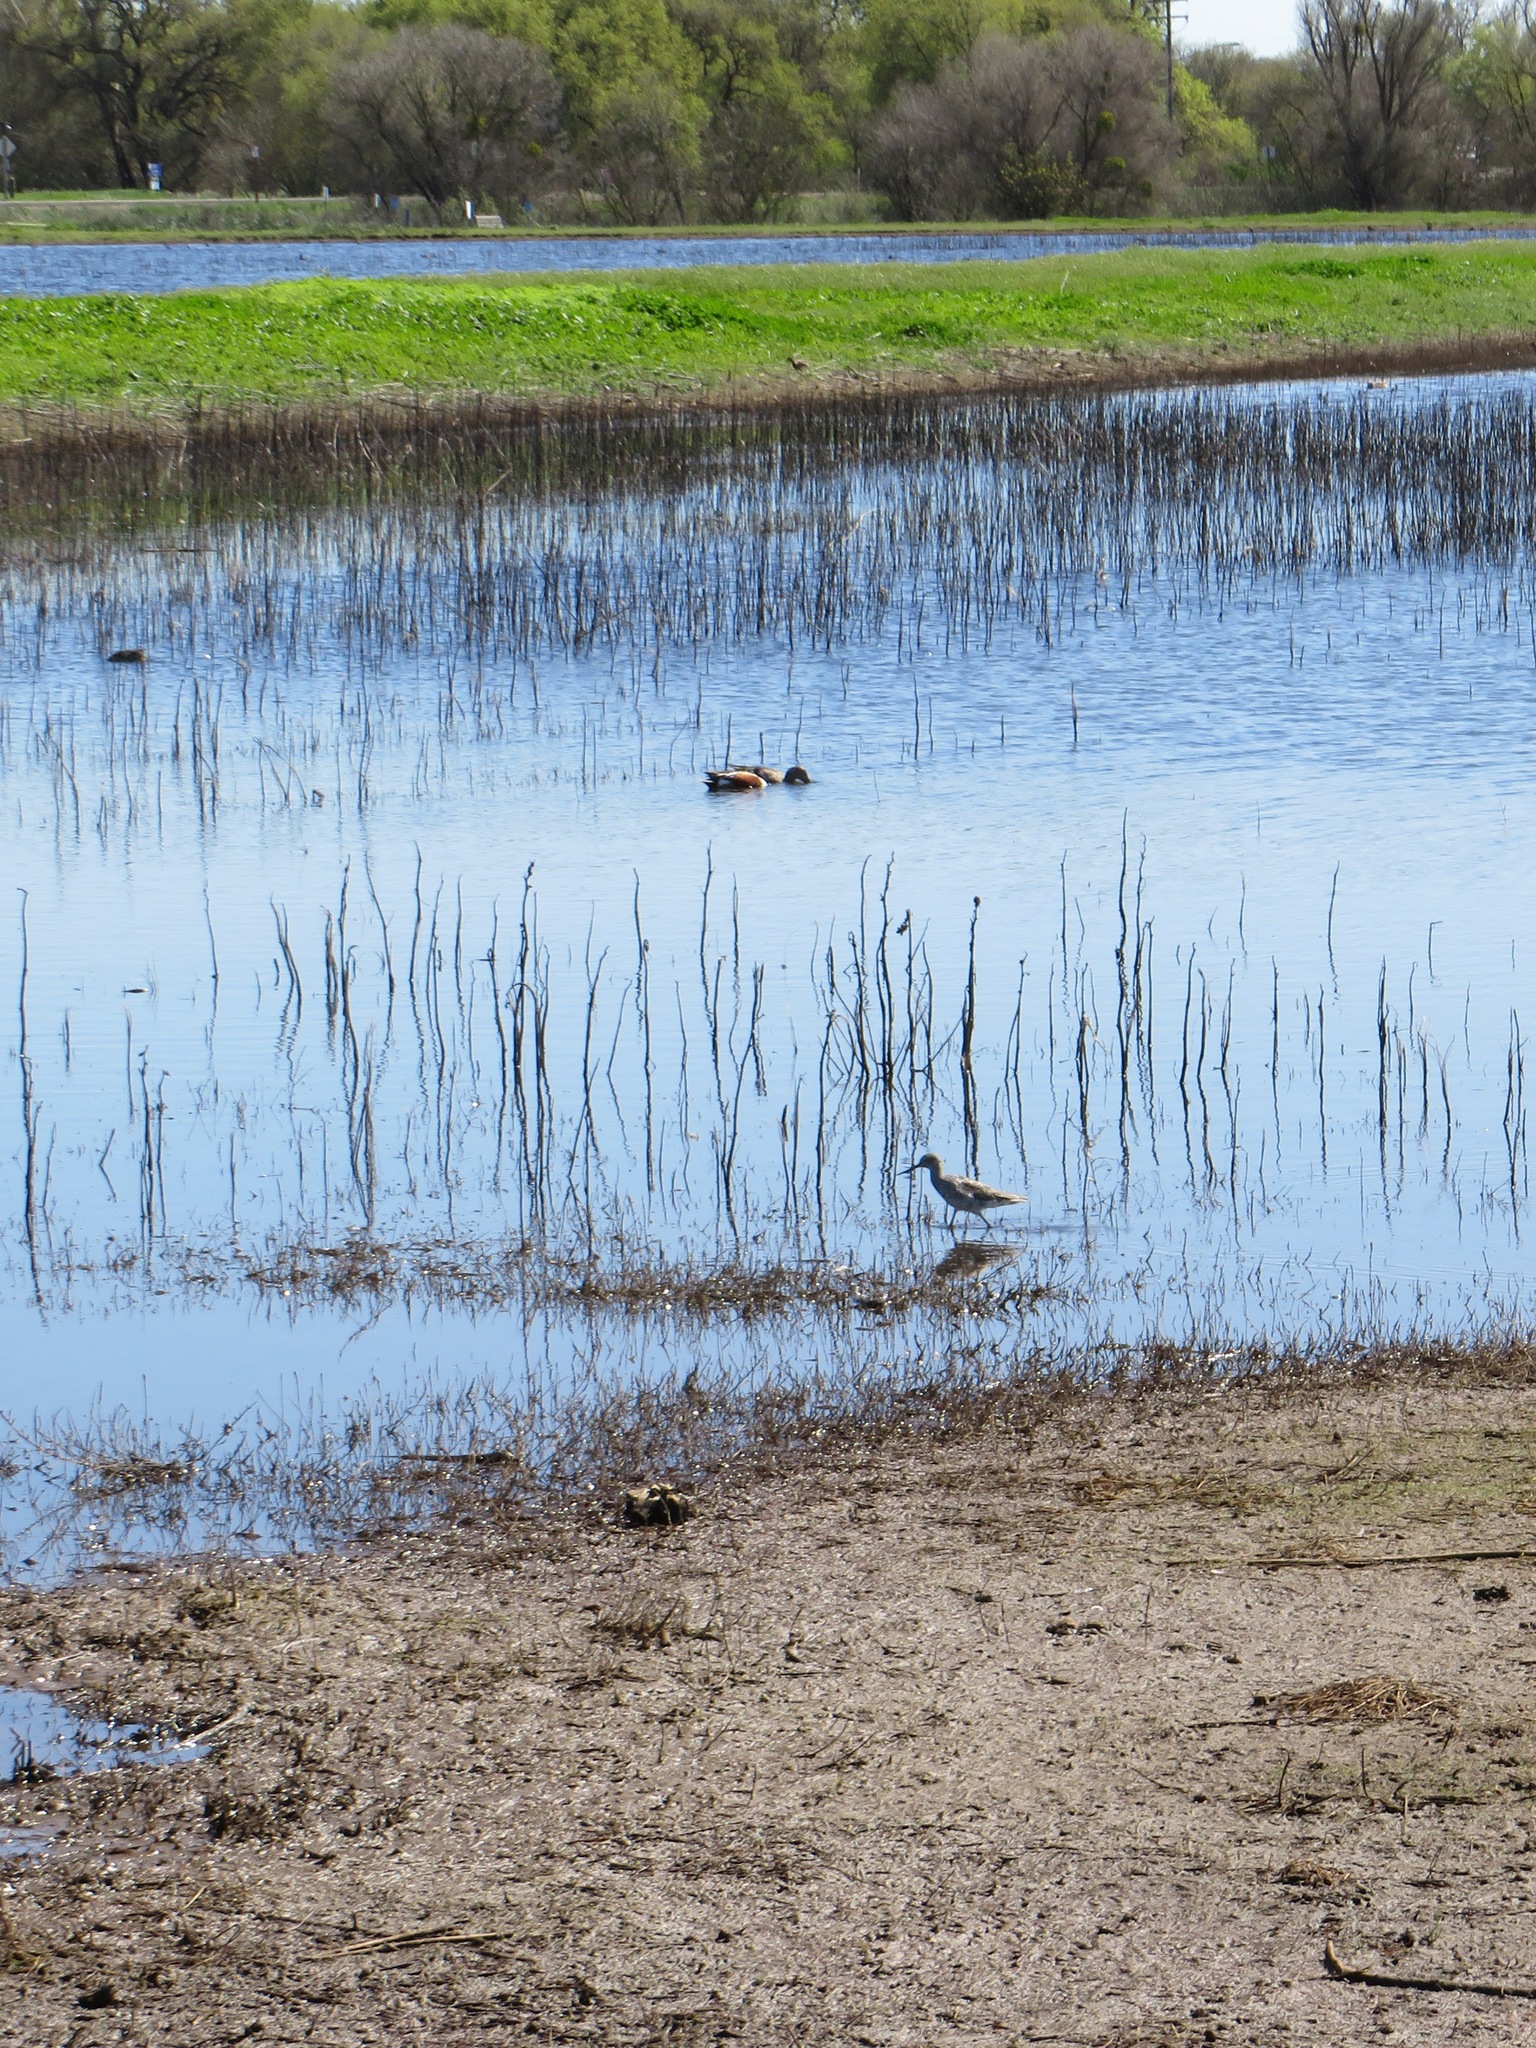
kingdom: Animalia
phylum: Chordata
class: Aves
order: Charadriiformes
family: Scolopacidae
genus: Tringa
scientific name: Tringa melanoleuca
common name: Greater yellowlegs
